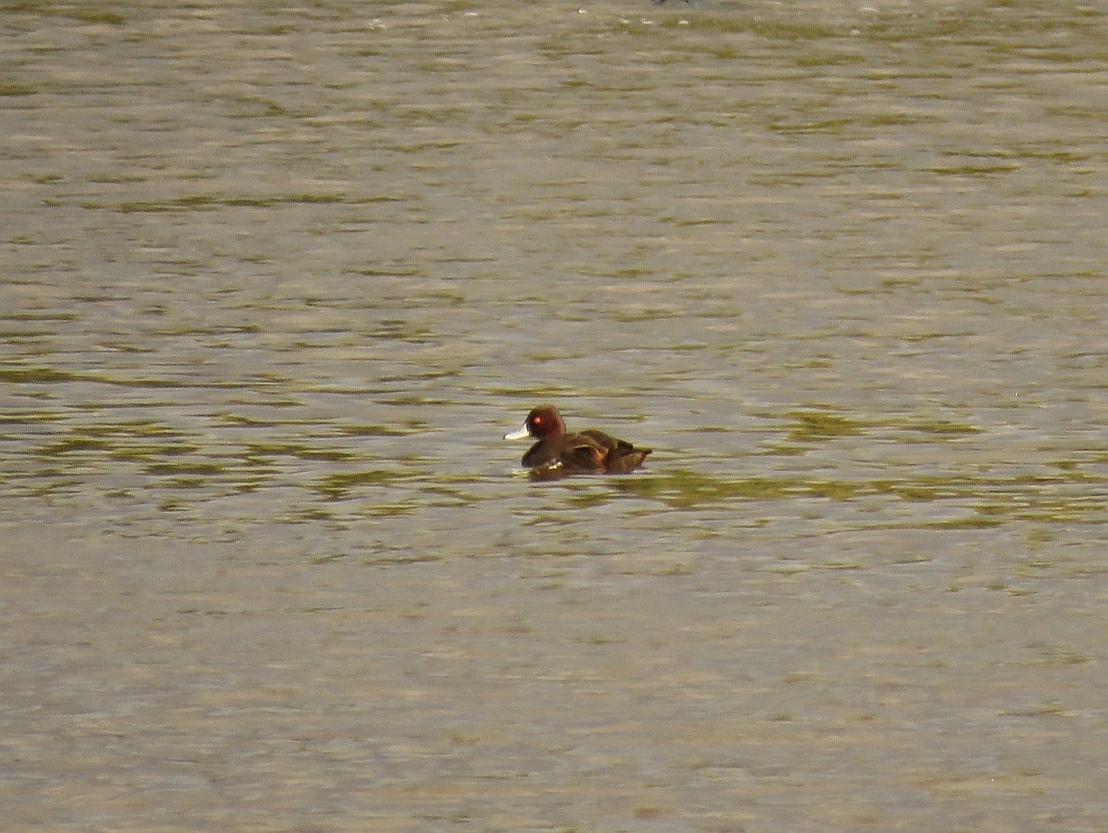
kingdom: Animalia
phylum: Chordata
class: Aves
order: Anseriformes
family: Anatidae
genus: Netta
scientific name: Netta erythrophthalma
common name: Southern pochard
